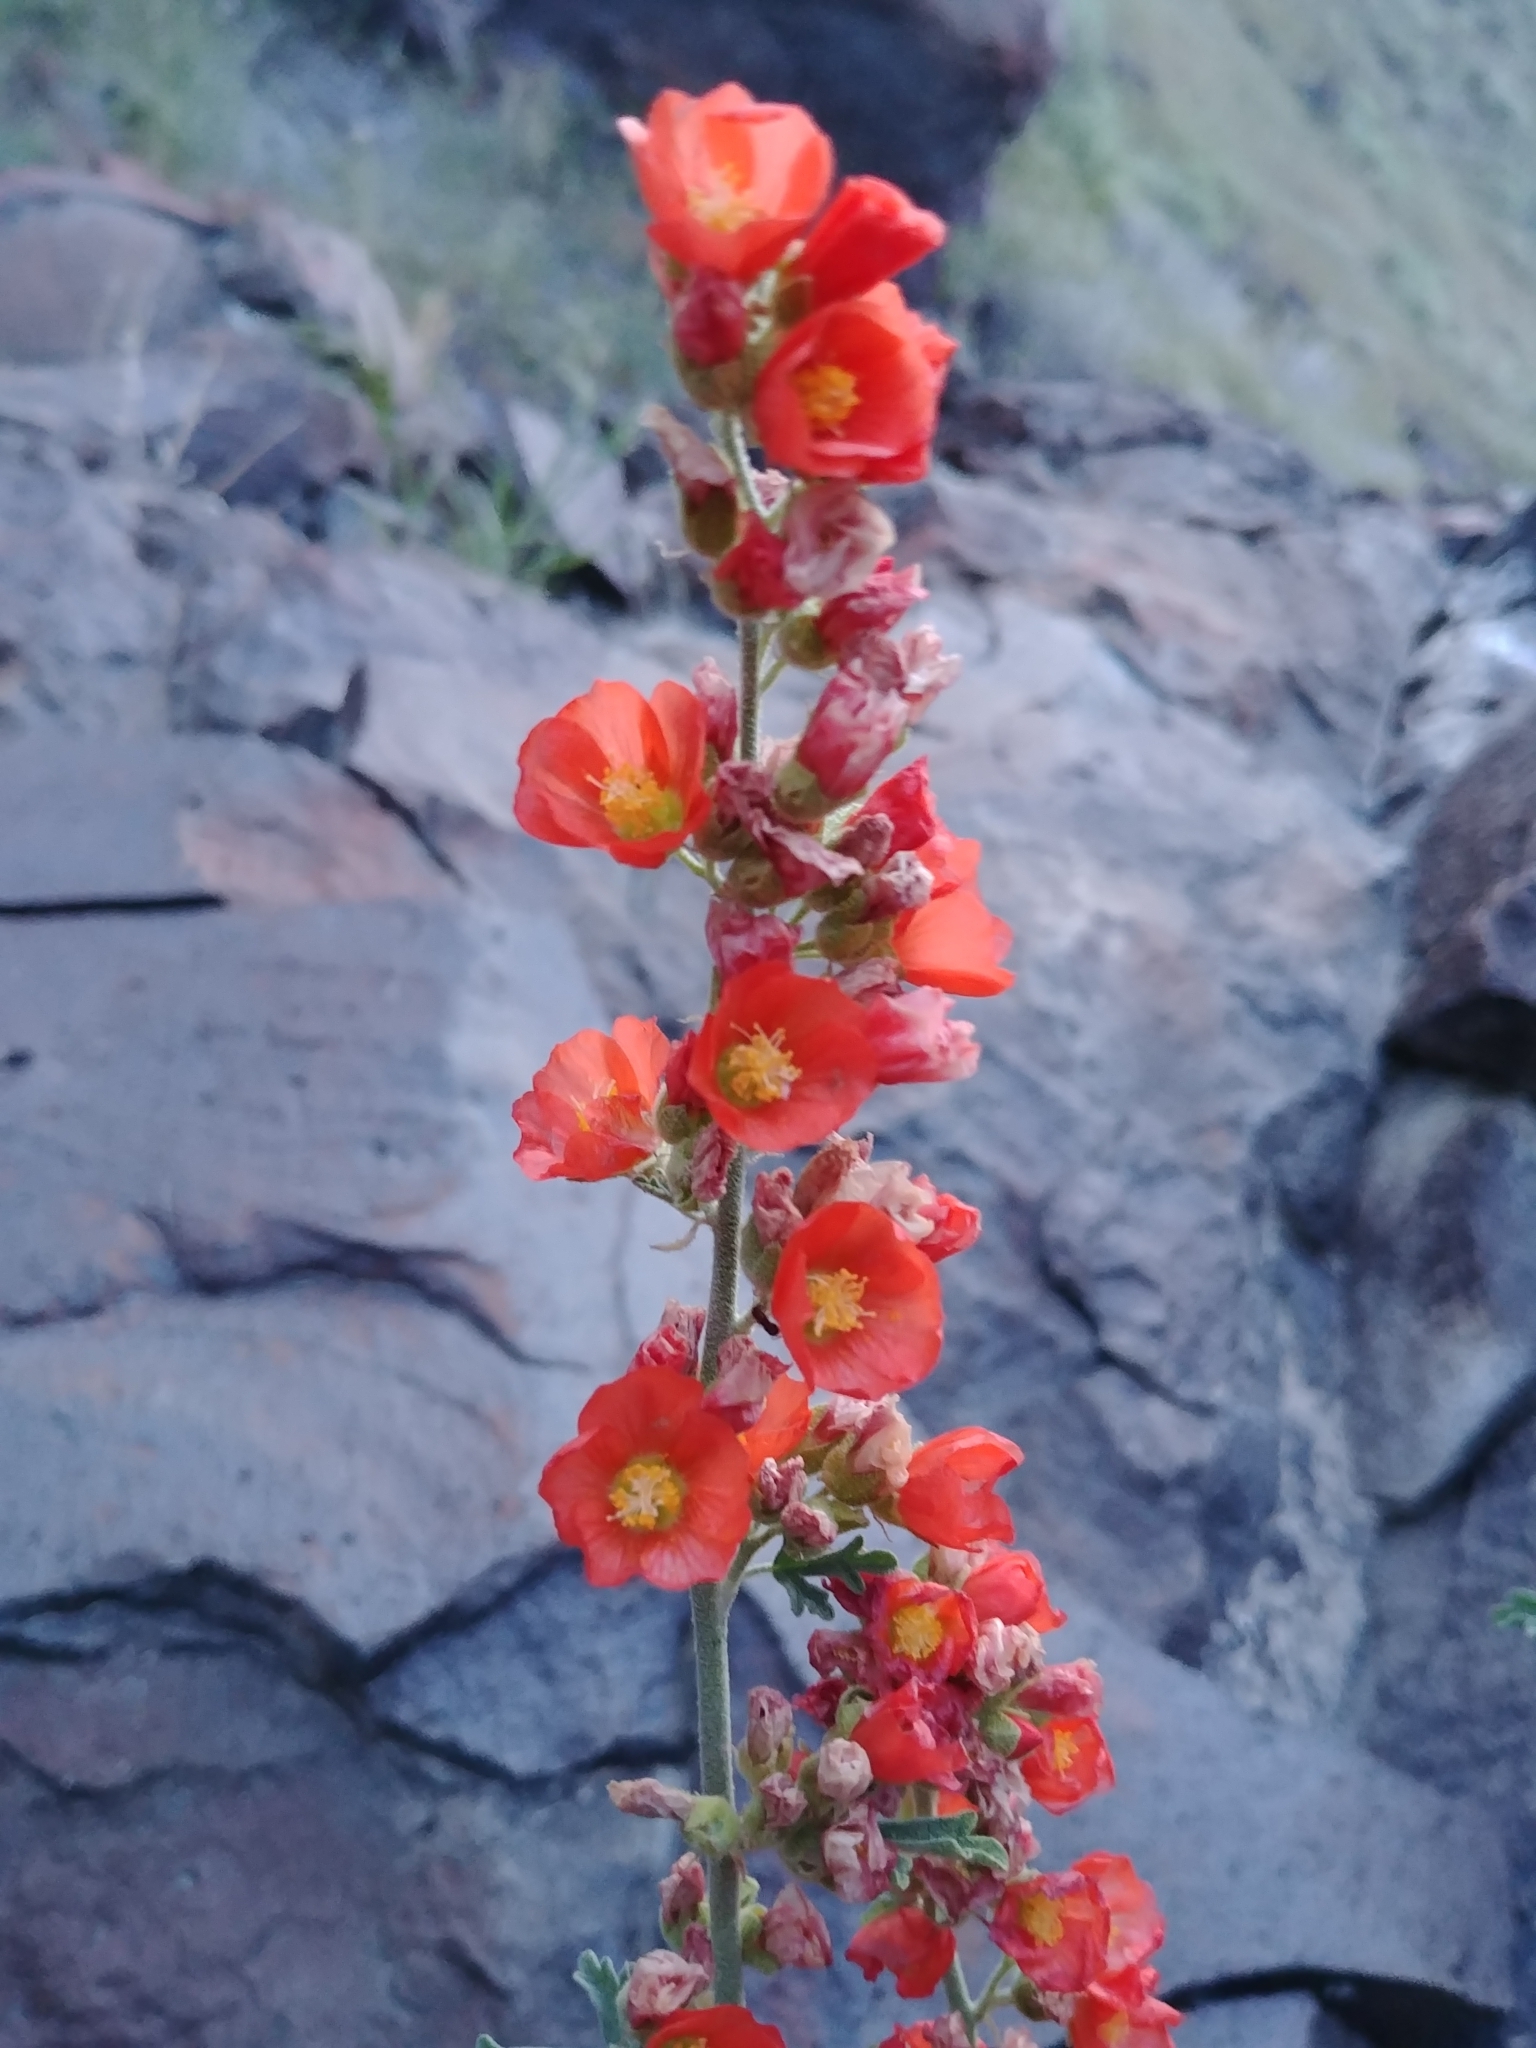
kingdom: Plantae
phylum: Tracheophyta
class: Magnoliopsida
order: Malvales
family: Malvaceae
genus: Sphaeralcea
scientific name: Sphaeralcea grossulariifolia
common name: Current-leaf globe-mallow
